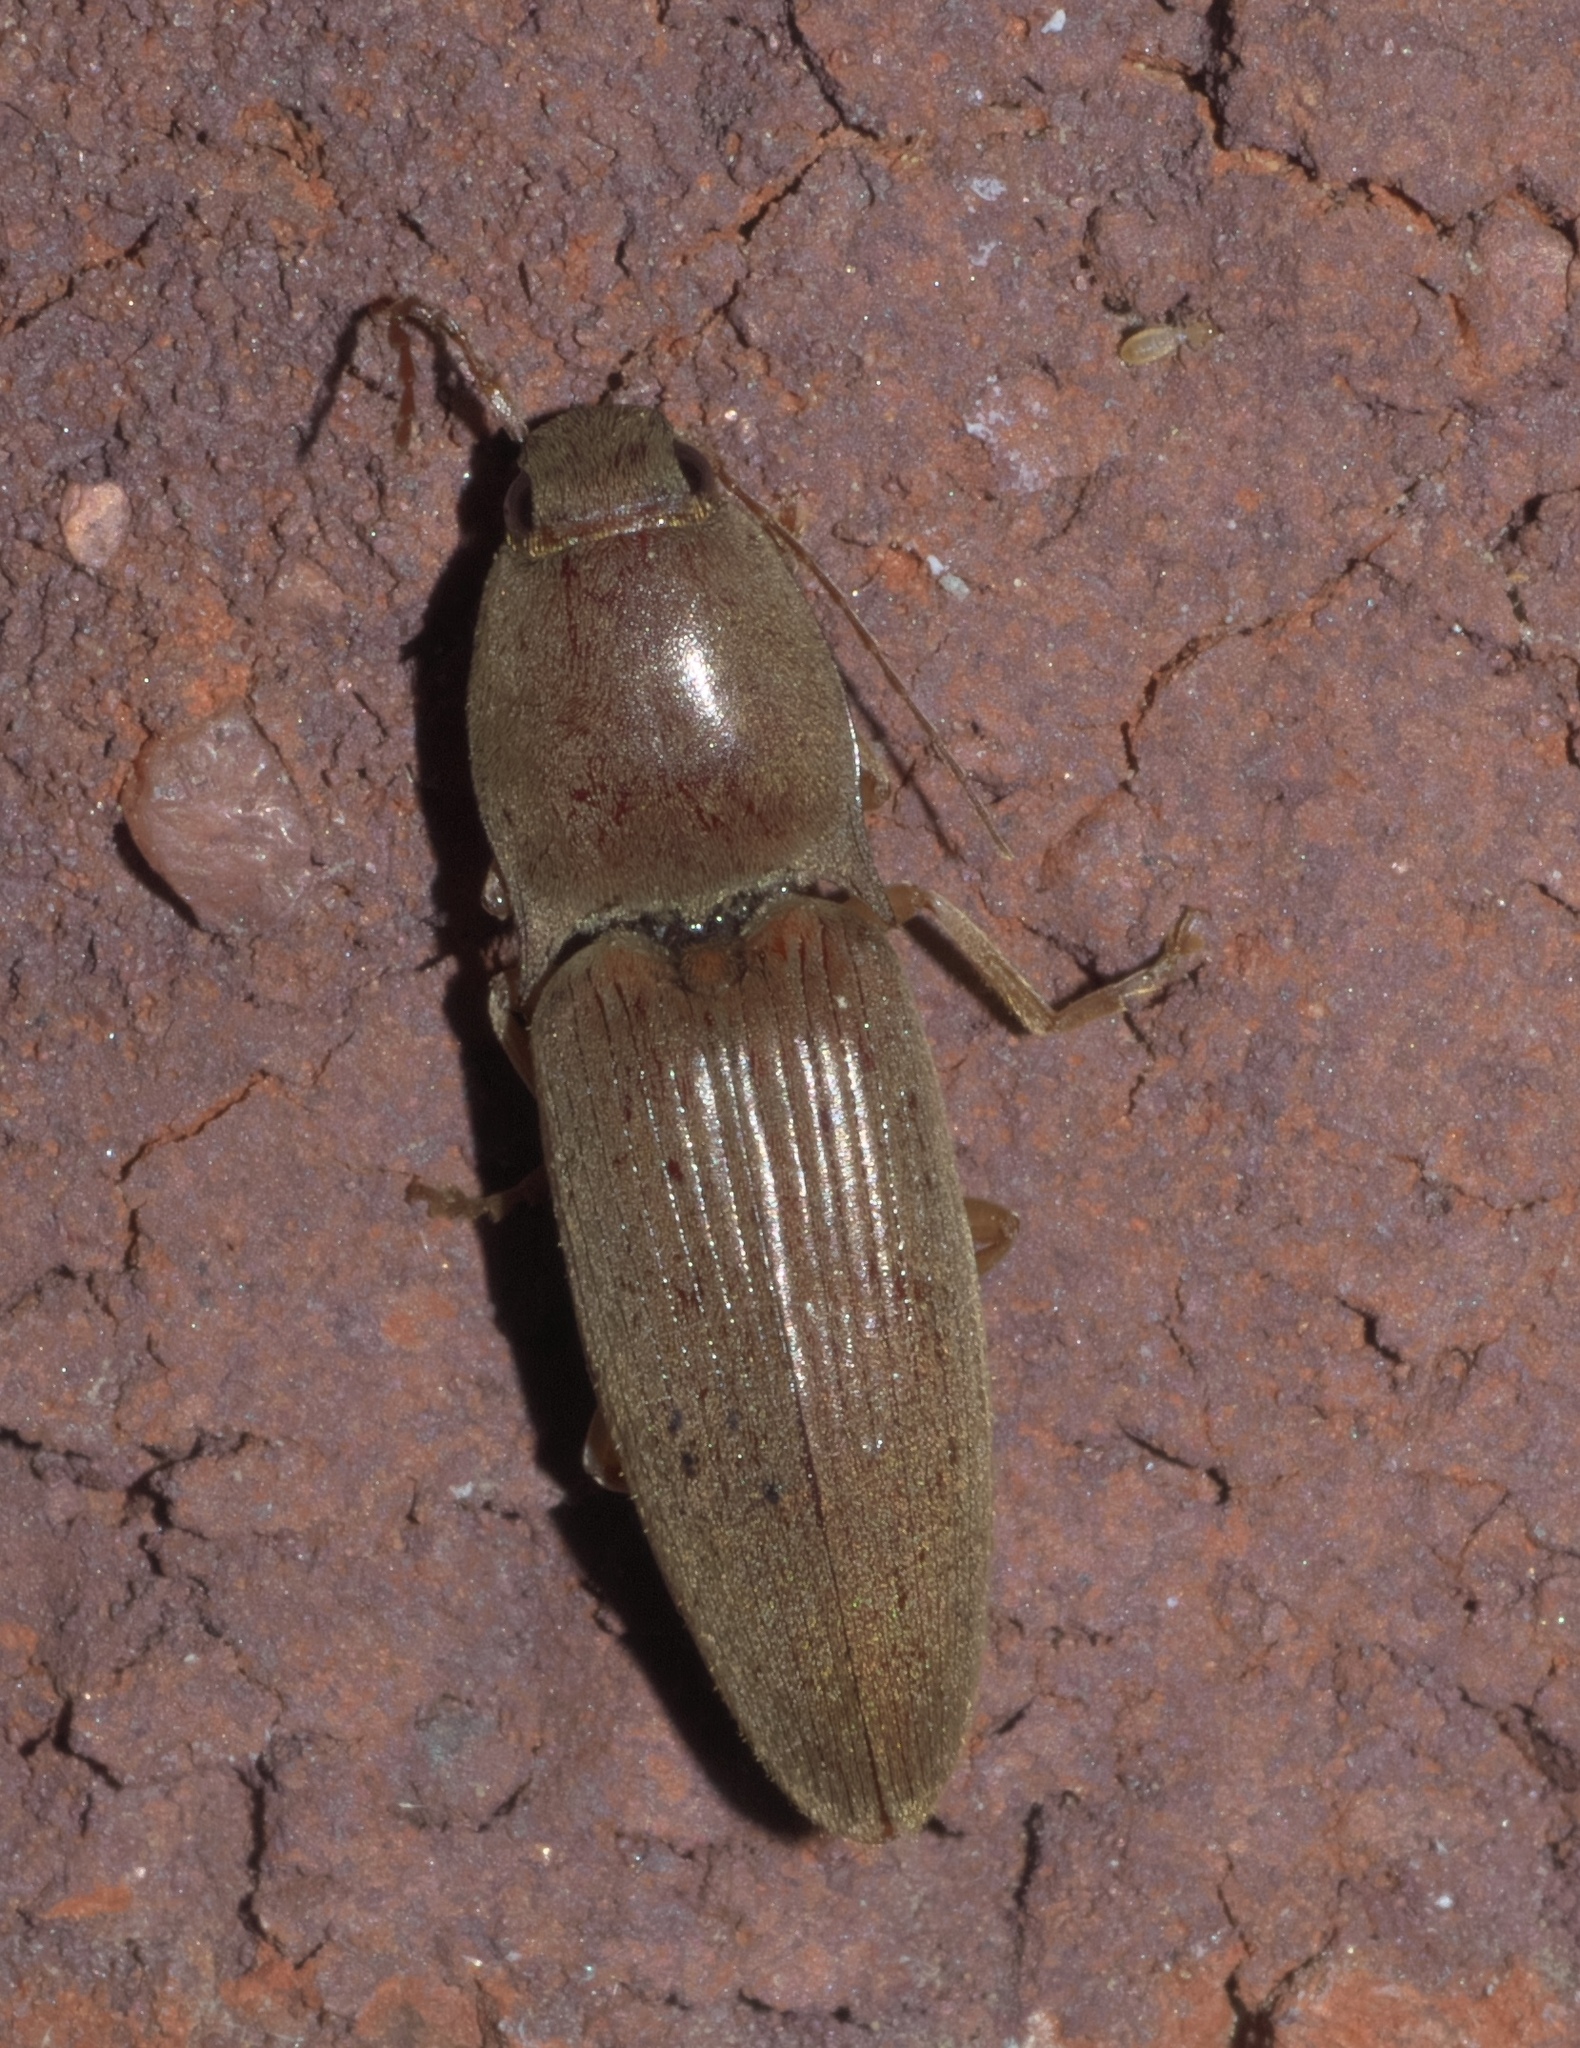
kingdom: Animalia
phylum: Arthropoda
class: Insecta
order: Coleoptera
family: Elateridae
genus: Monocrepidius
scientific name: Monocrepidius lividus
